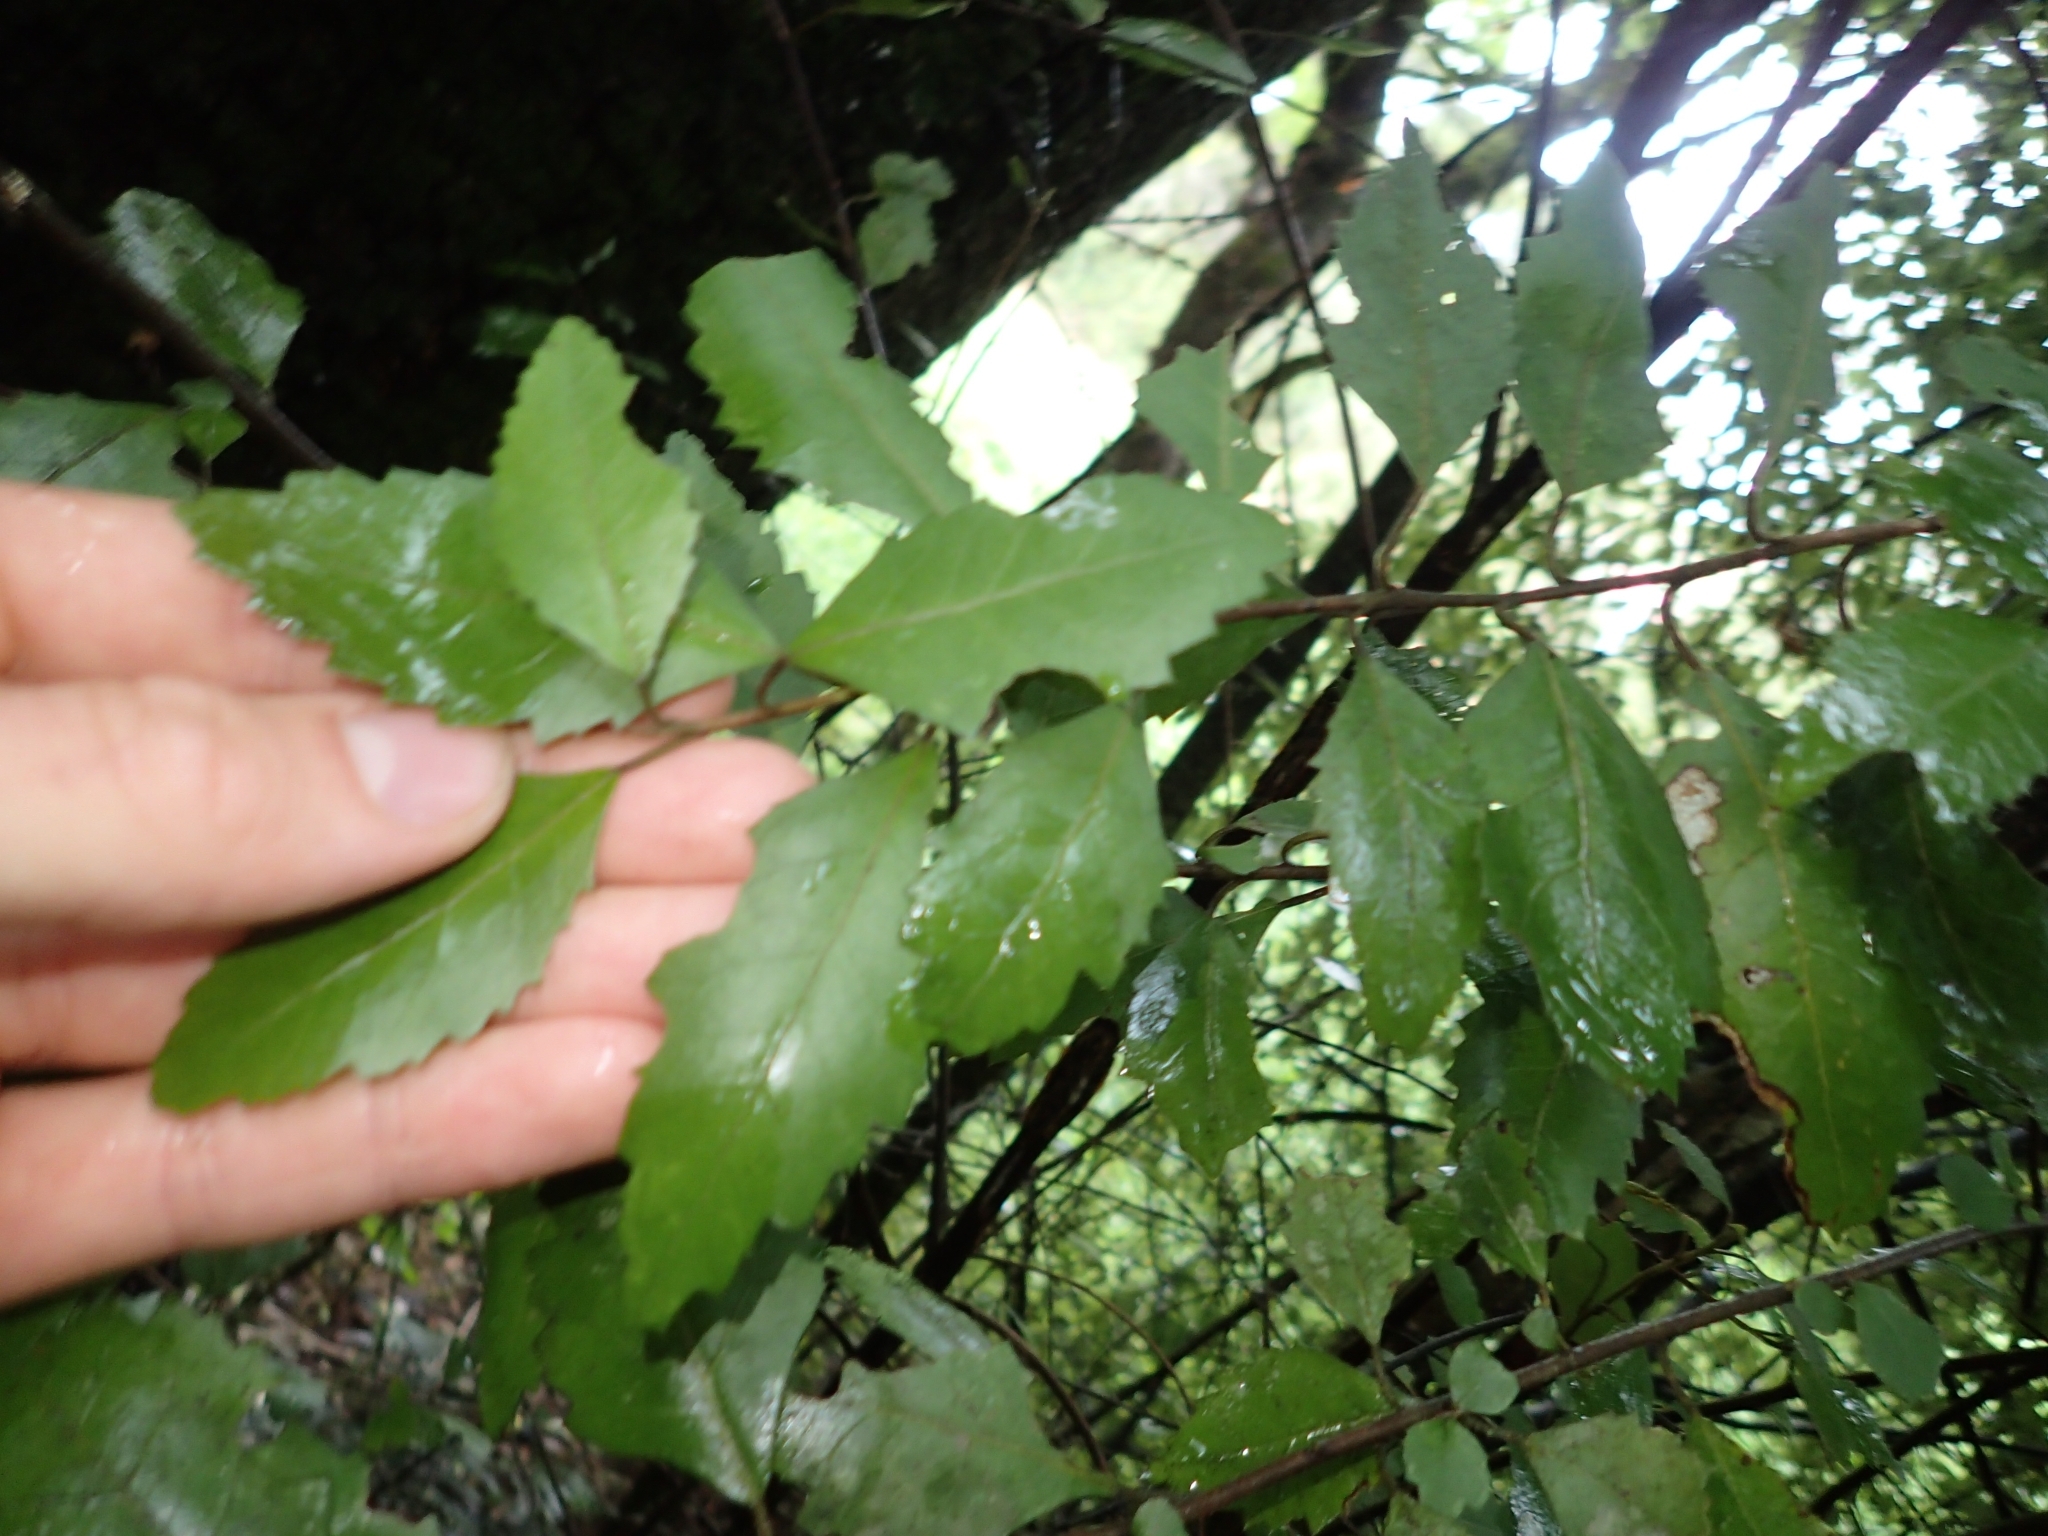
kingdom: Plantae
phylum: Tracheophyta
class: Magnoliopsida
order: Malvales
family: Malvaceae
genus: Hoheria
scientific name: Hoheria sexstylosa
